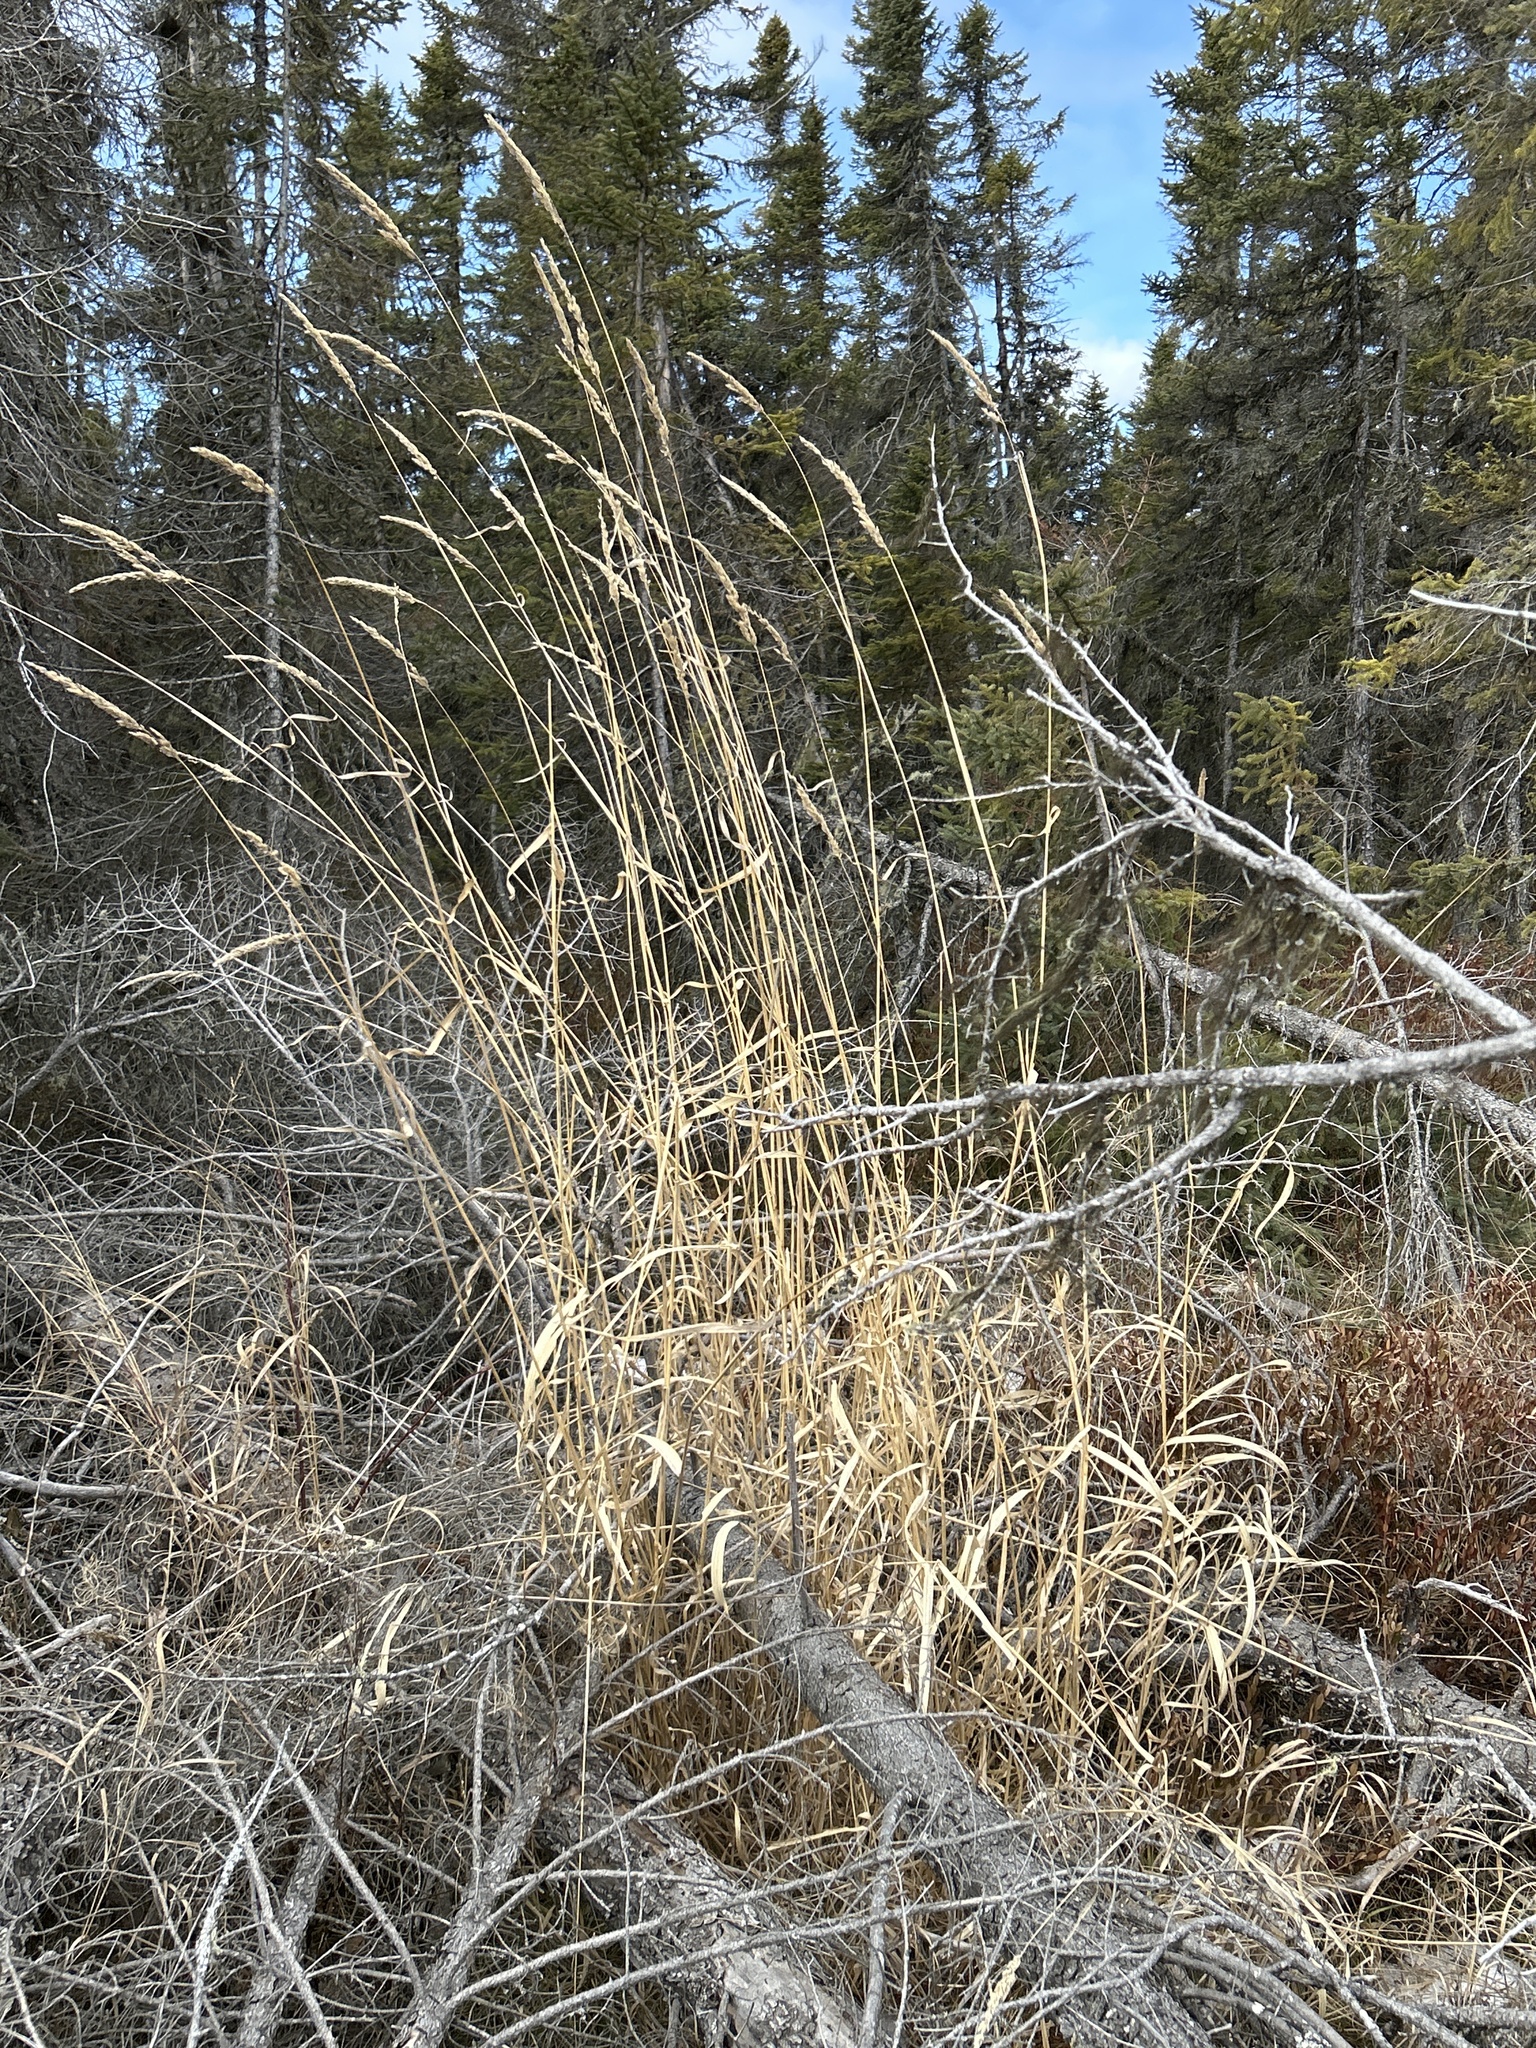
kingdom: Plantae
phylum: Tracheophyta
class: Liliopsida
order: Poales
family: Poaceae
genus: Phalaris
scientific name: Phalaris arundinacea
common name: Reed canary-grass
